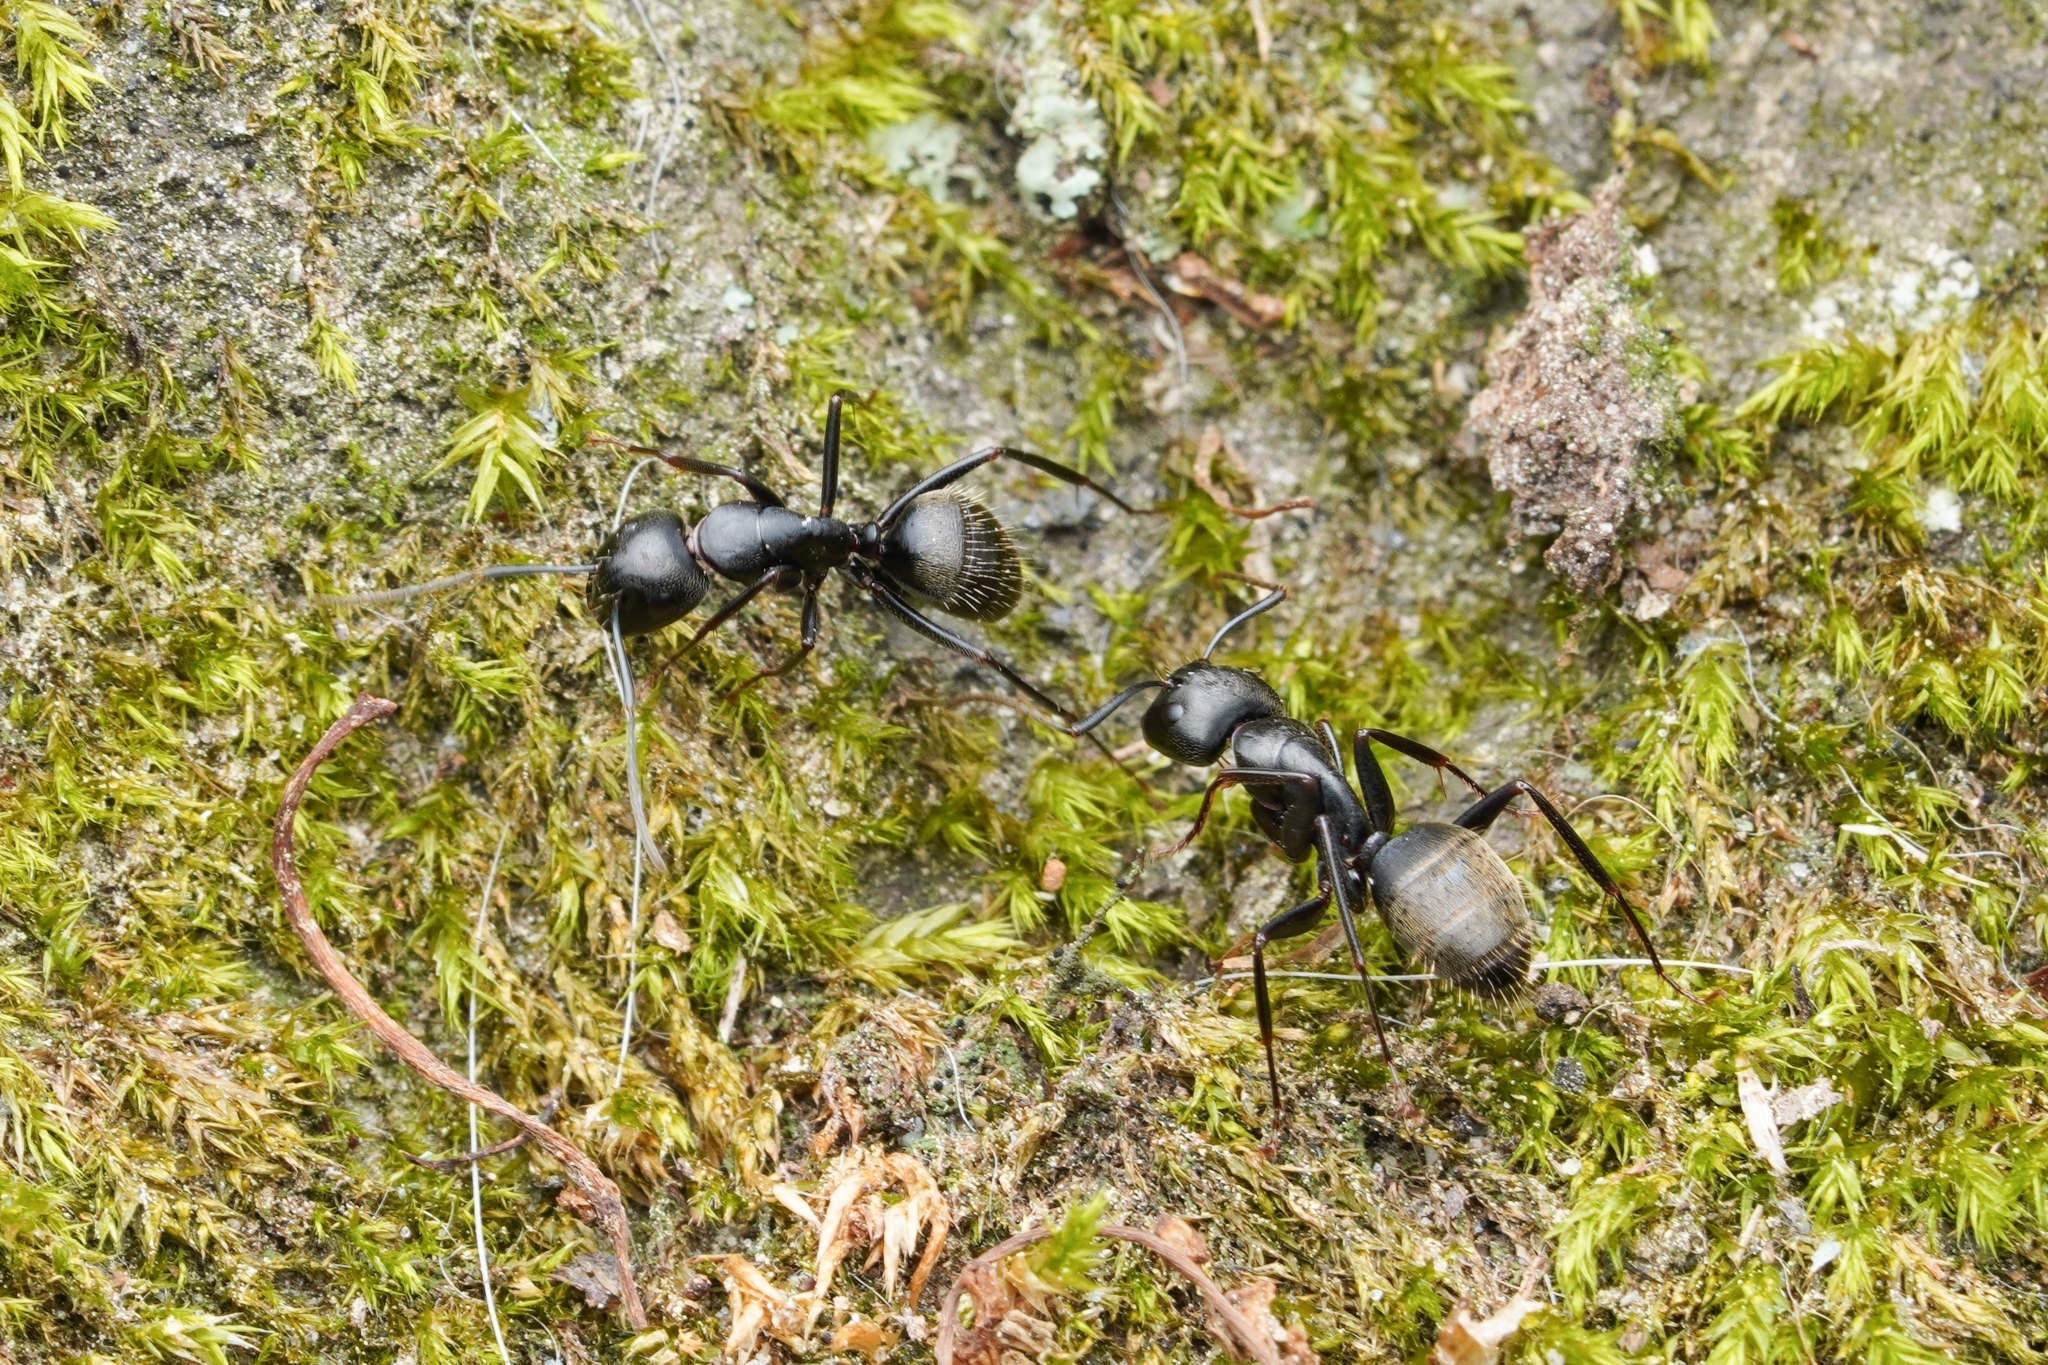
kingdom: Animalia
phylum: Arthropoda
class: Insecta
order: Hymenoptera
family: Formicidae
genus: Camponotus
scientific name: Camponotus pennsylvanicus
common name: Black carpenter ant
